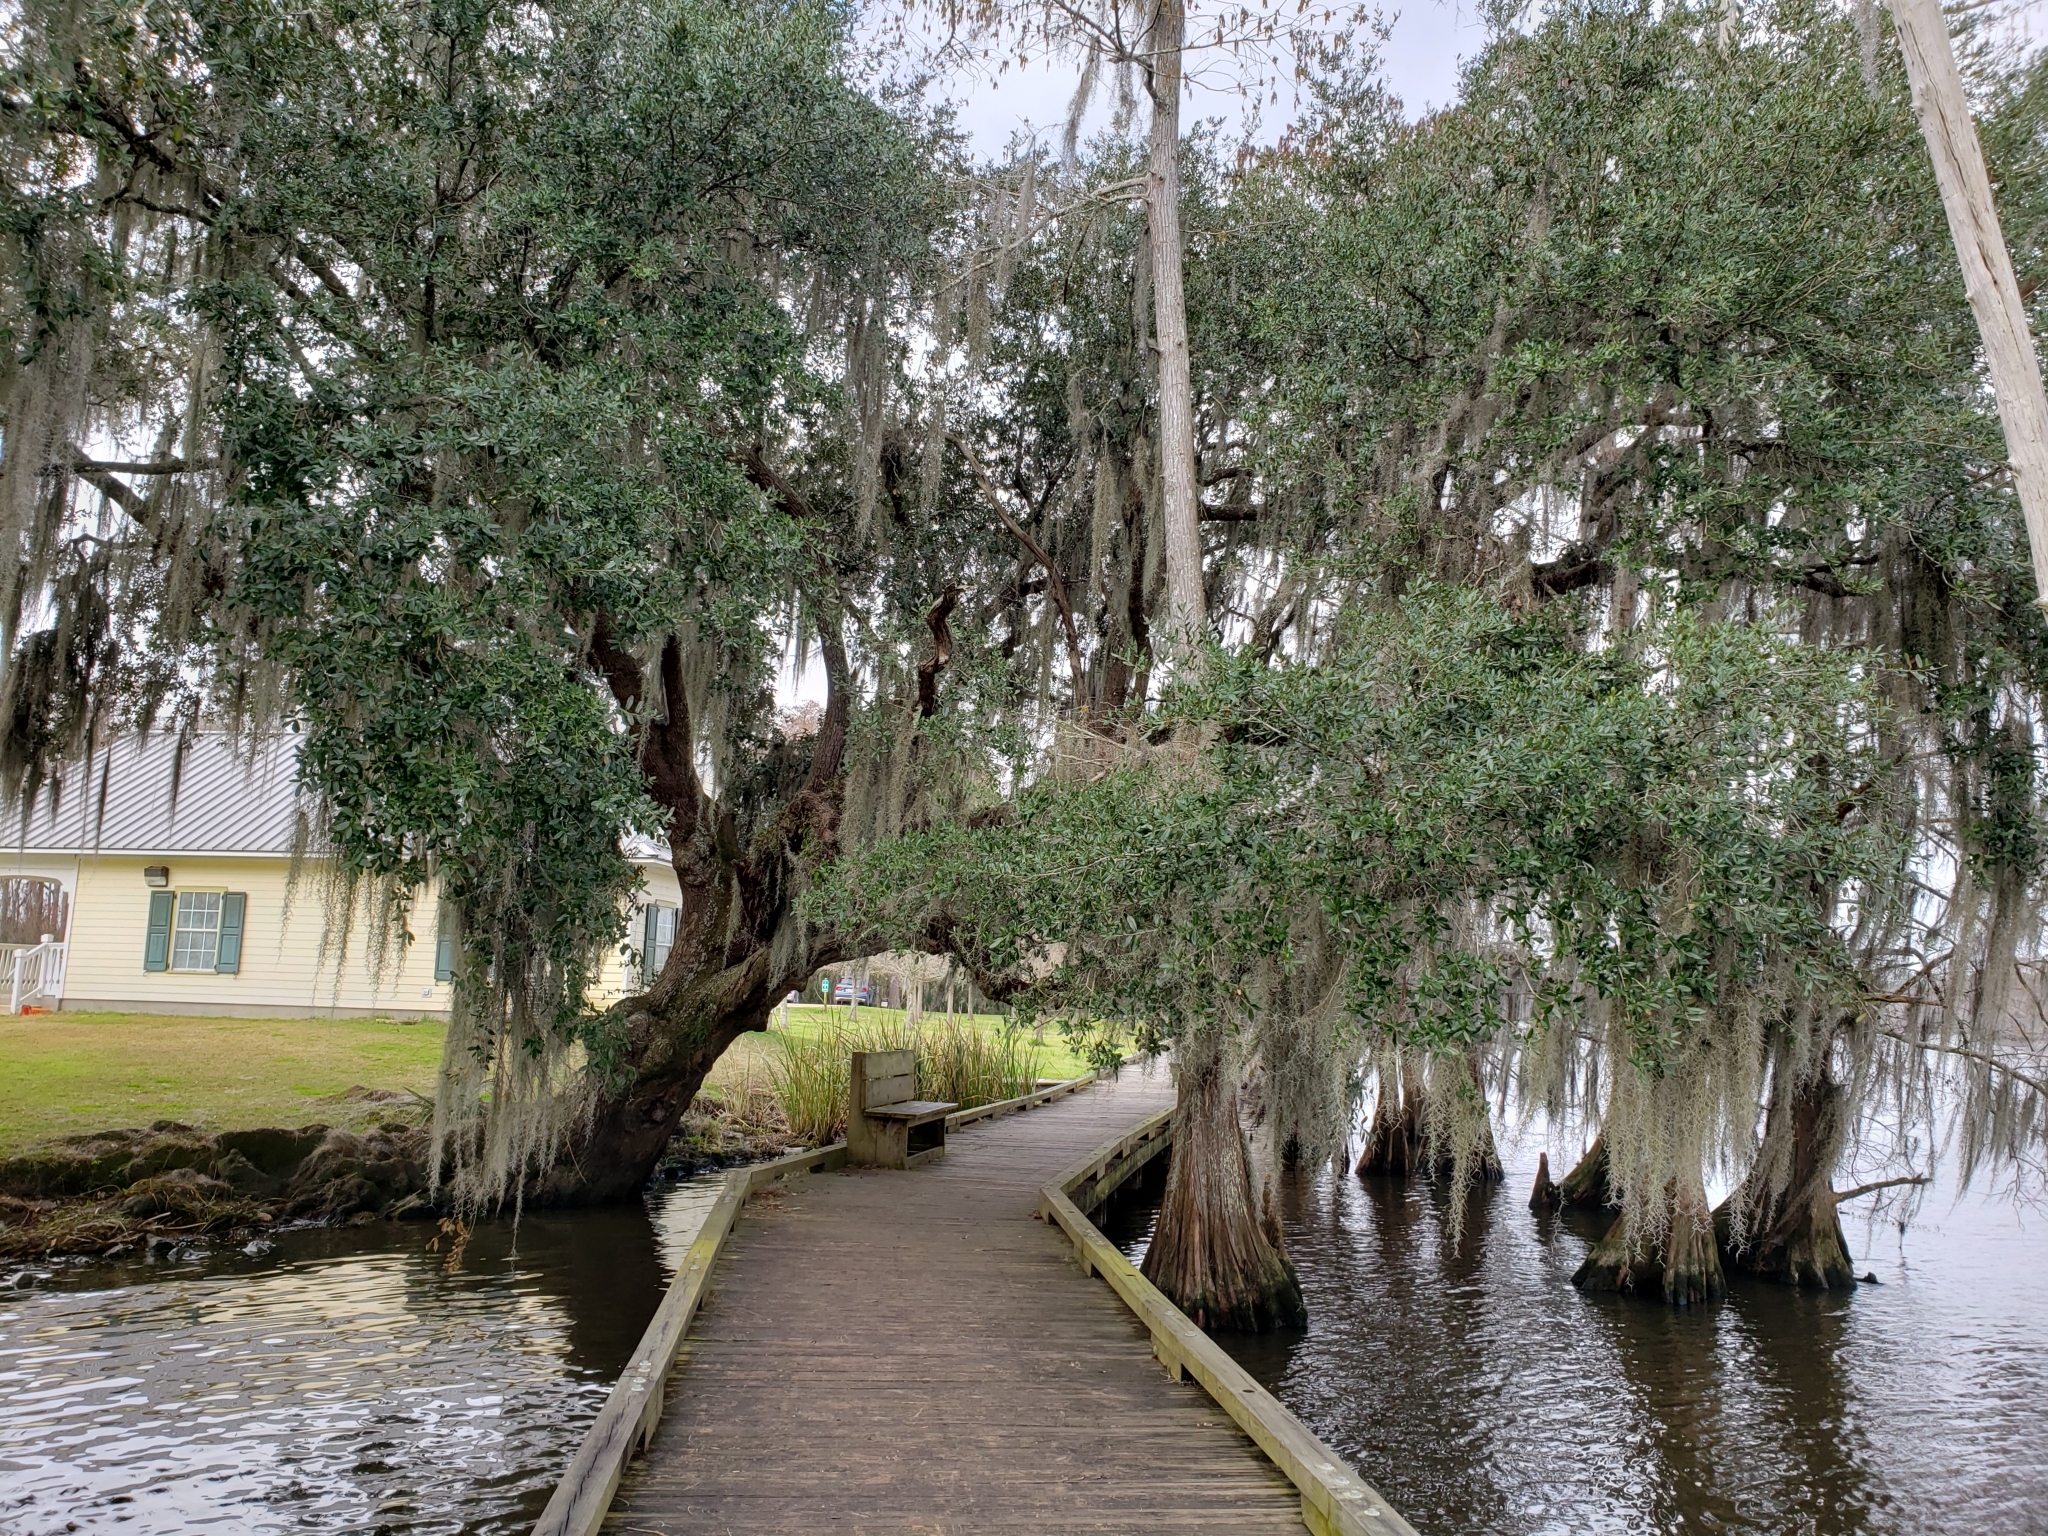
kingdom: Plantae
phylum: Tracheophyta
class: Magnoliopsida
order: Fagales
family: Fagaceae
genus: Quercus
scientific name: Quercus virginiana
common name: Southern live oak
